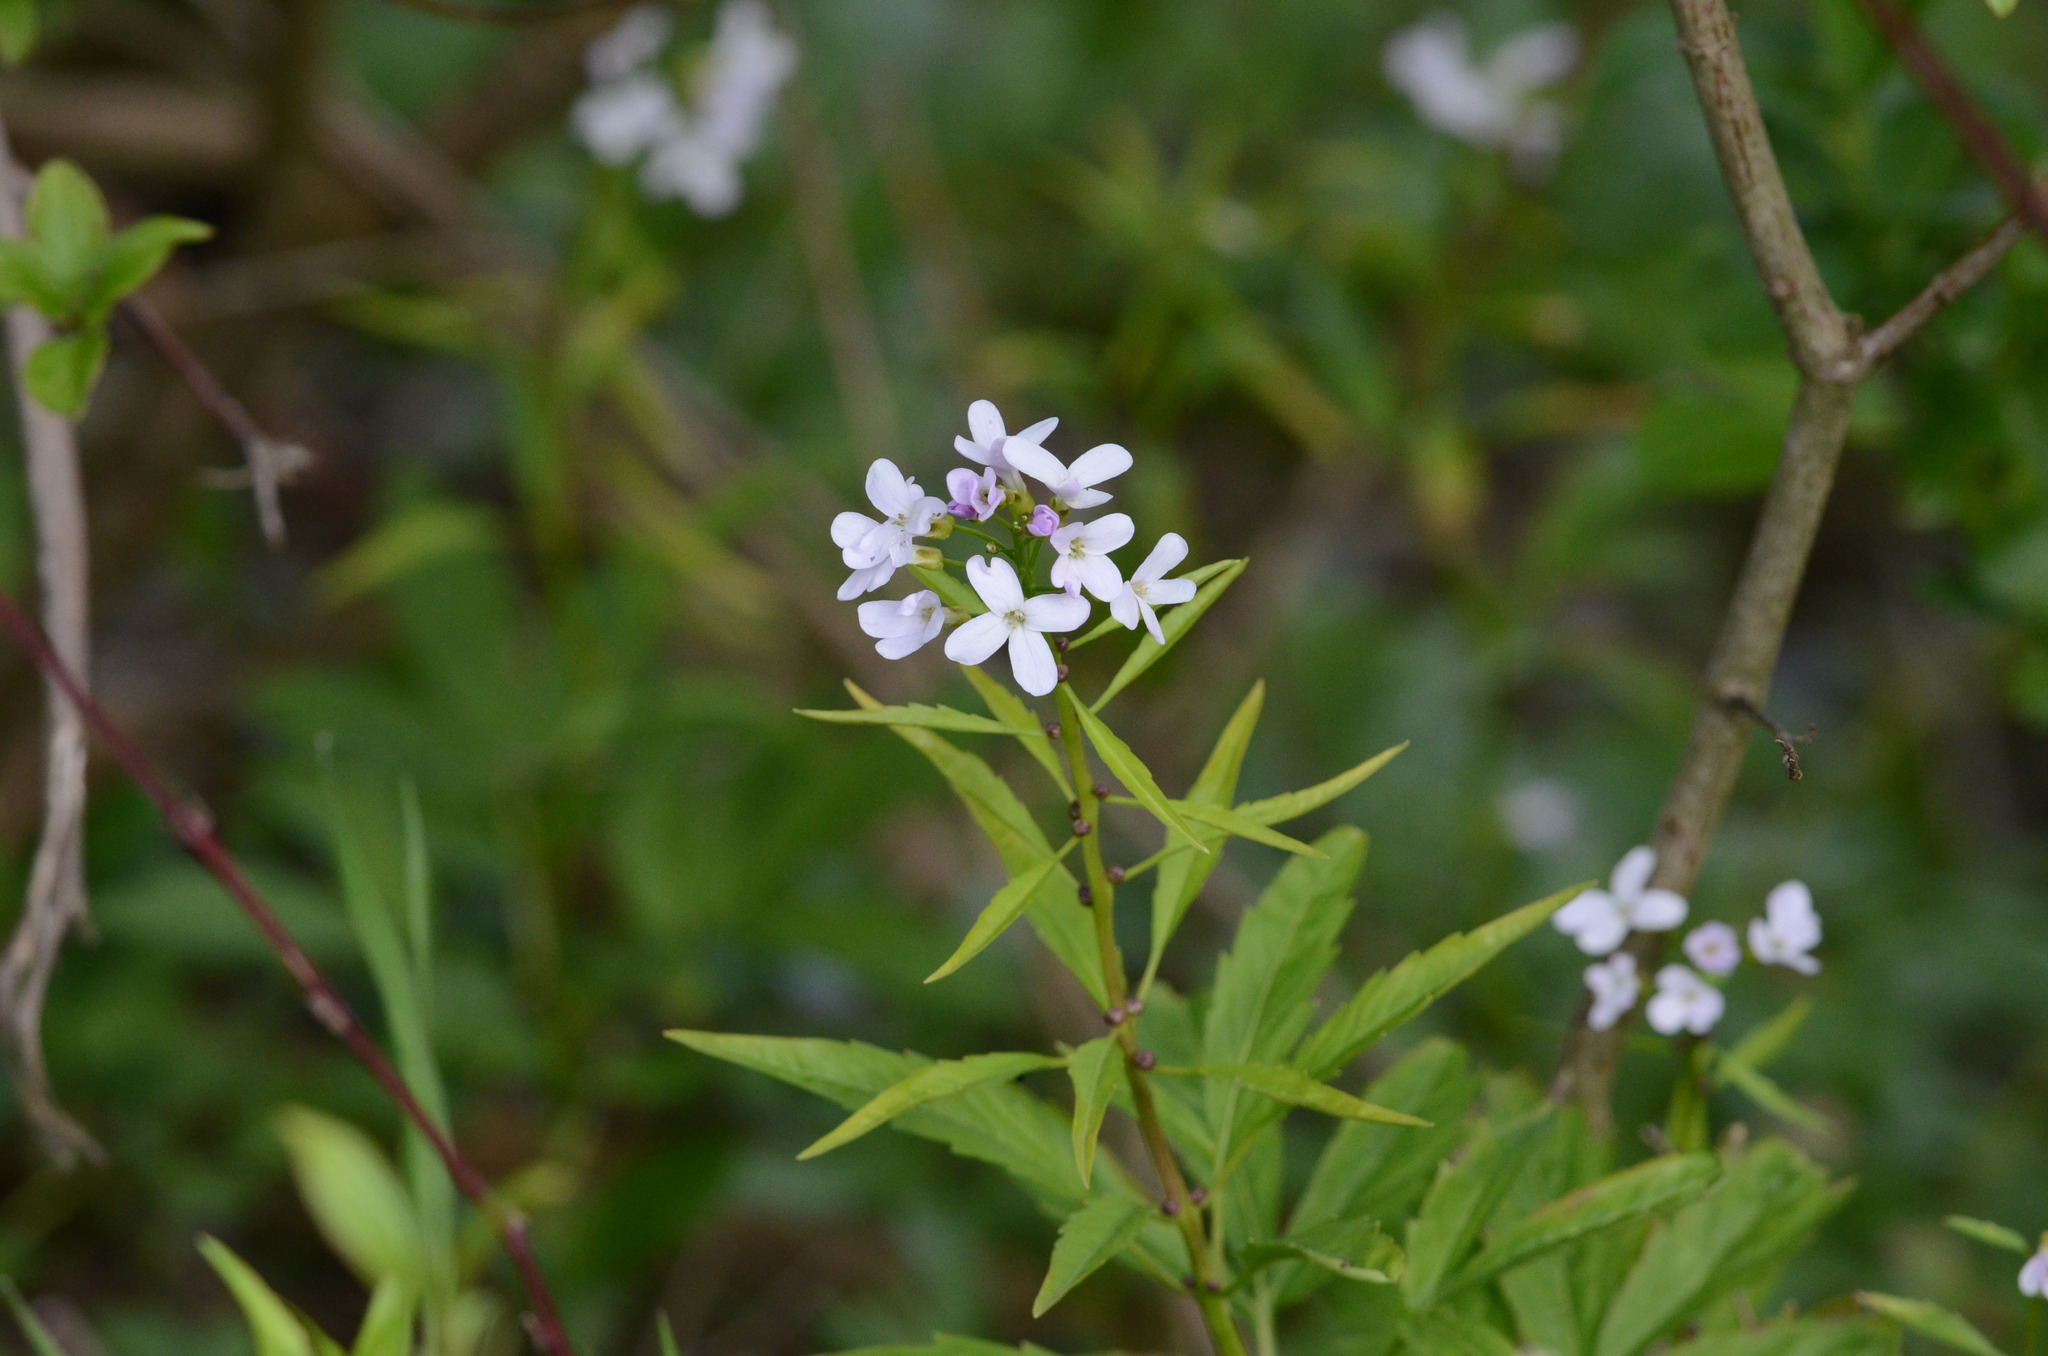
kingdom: Plantae
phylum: Tracheophyta
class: Magnoliopsida
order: Brassicales
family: Brassicaceae
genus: Cardamine
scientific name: Cardamine bulbifera
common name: Coralroot bittercress
